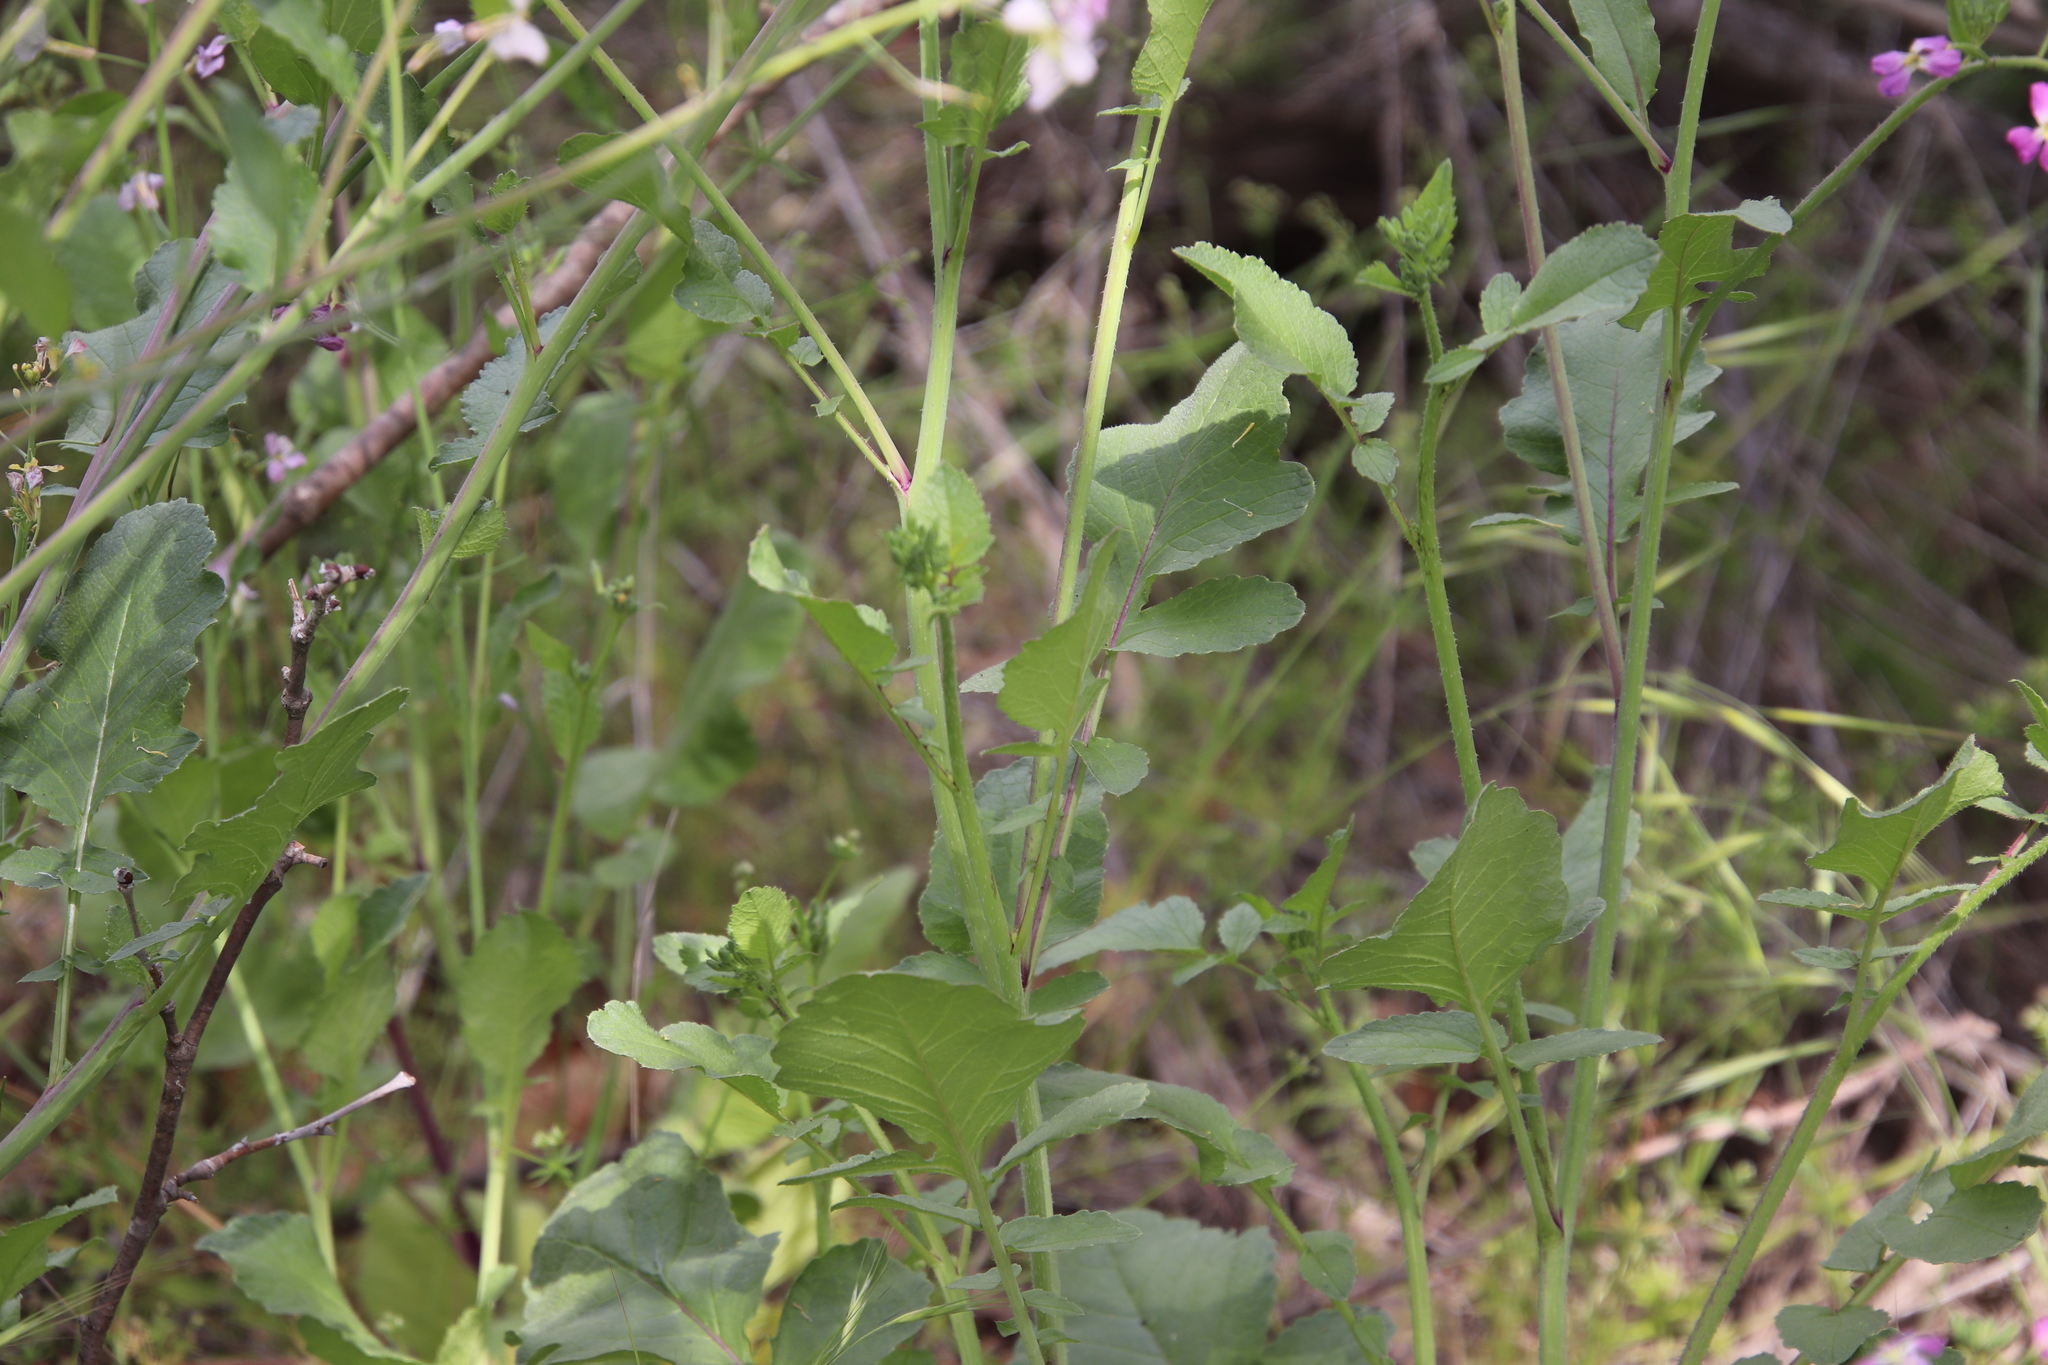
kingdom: Plantae
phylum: Tracheophyta
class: Magnoliopsida
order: Brassicales
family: Brassicaceae
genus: Raphanus
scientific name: Raphanus sativus
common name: Cultivated radish
